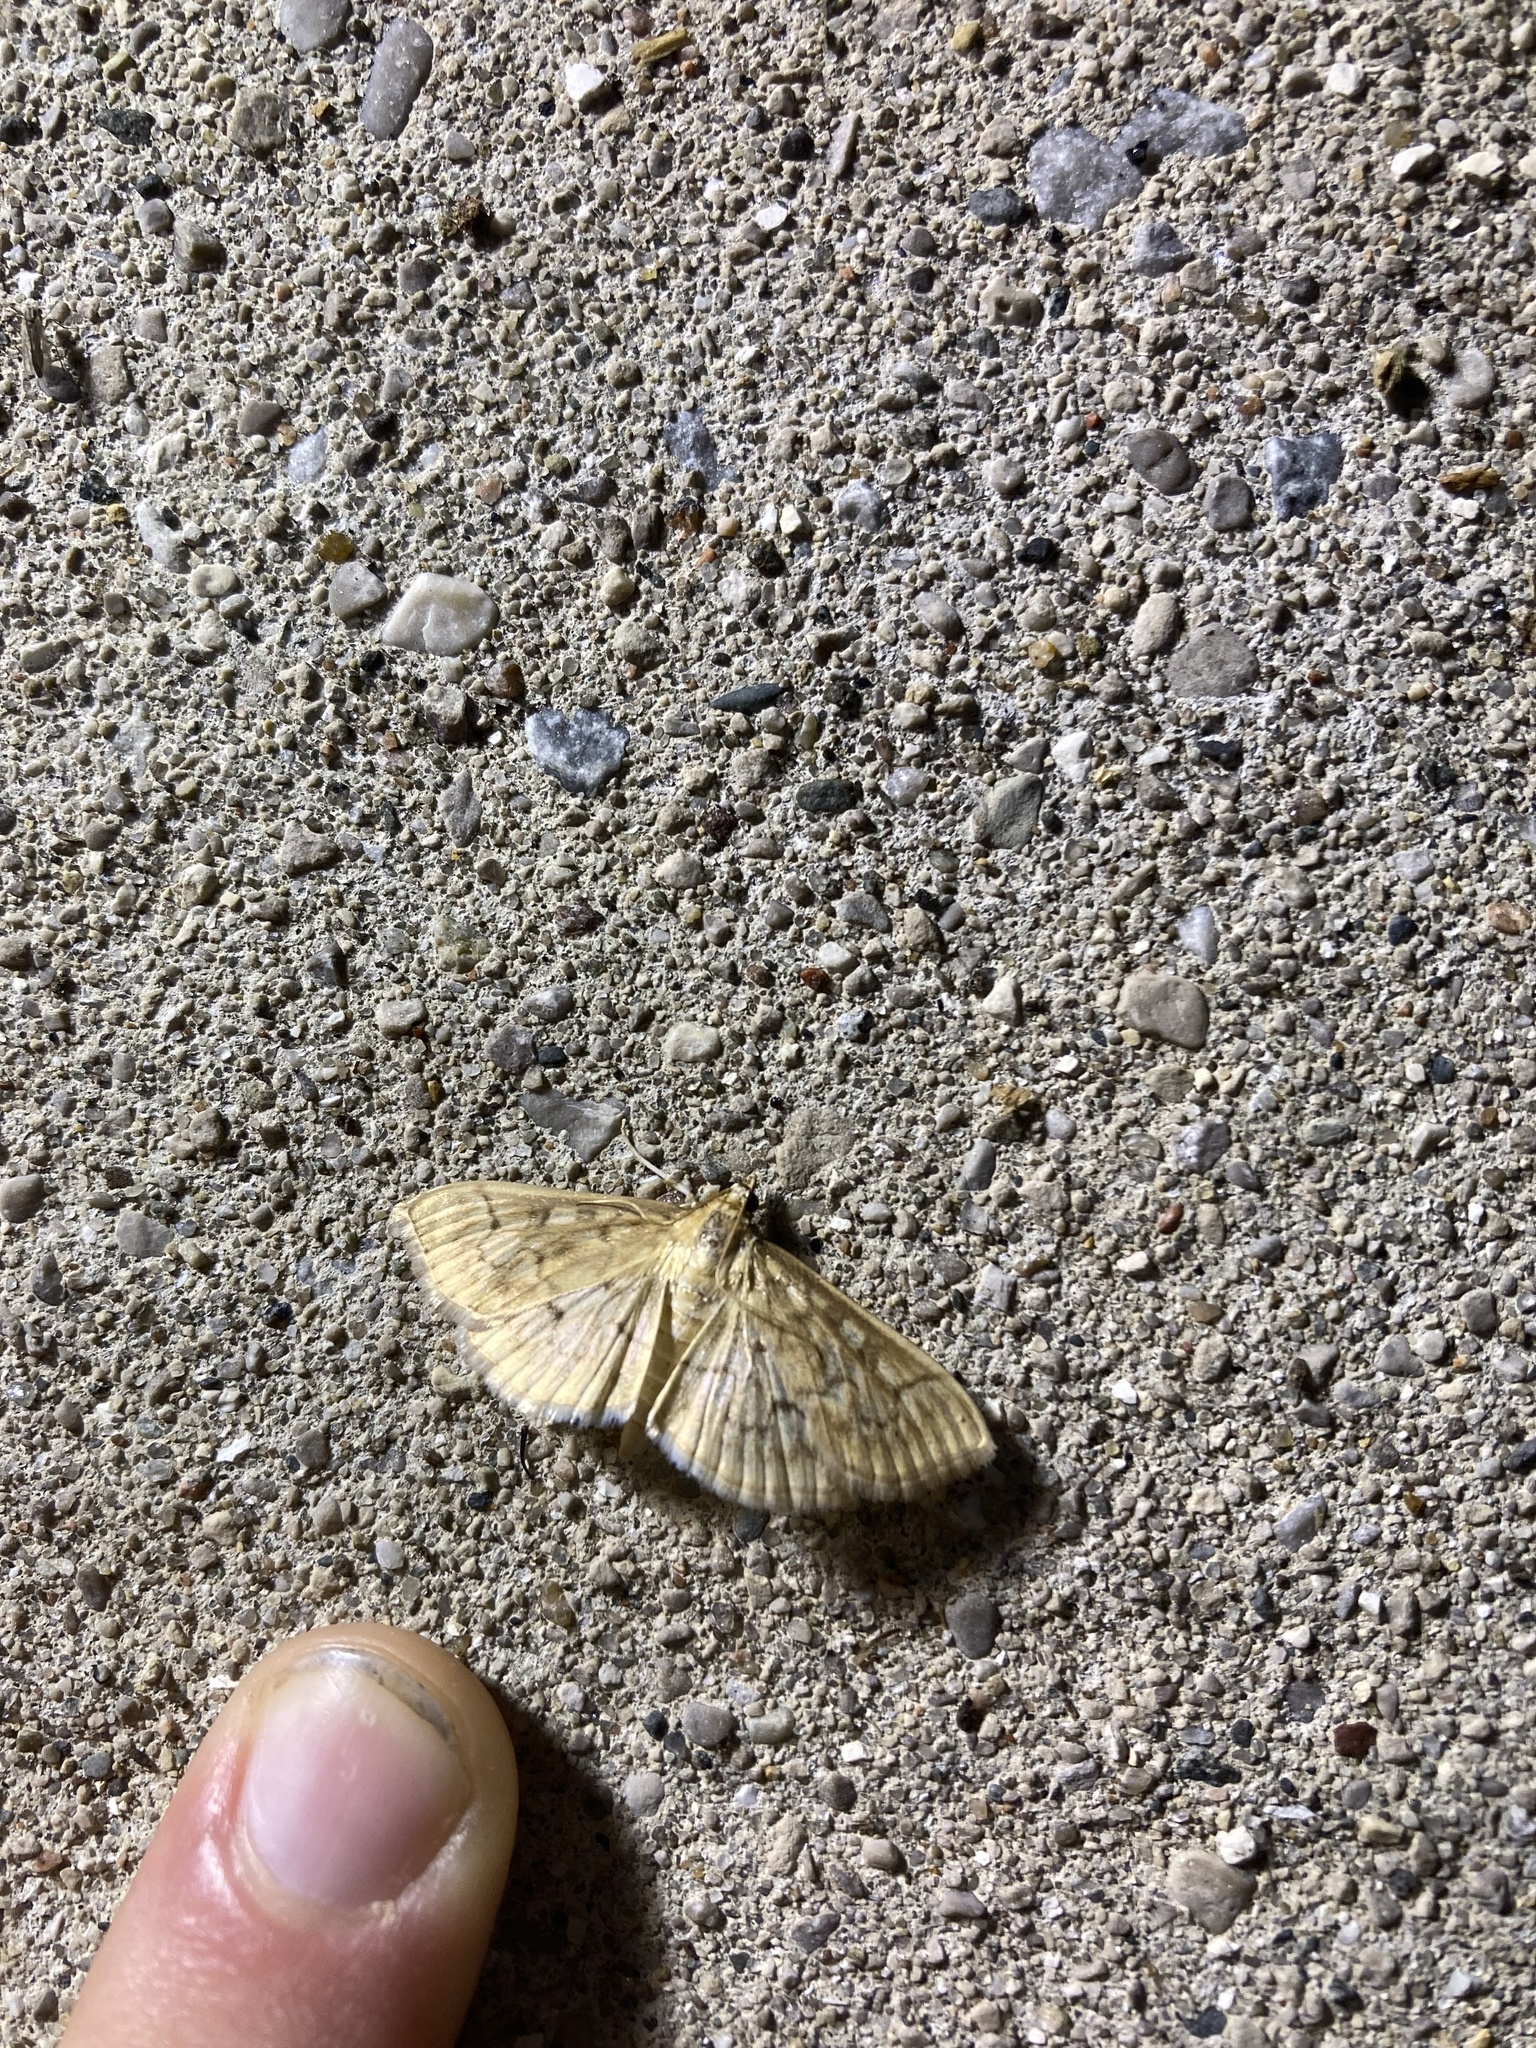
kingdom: Animalia
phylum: Arthropoda
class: Insecta
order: Lepidoptera
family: Crambidae
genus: Herpetogramma
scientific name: Herpetogramma aeglealis
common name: Serpentine webworm moth
